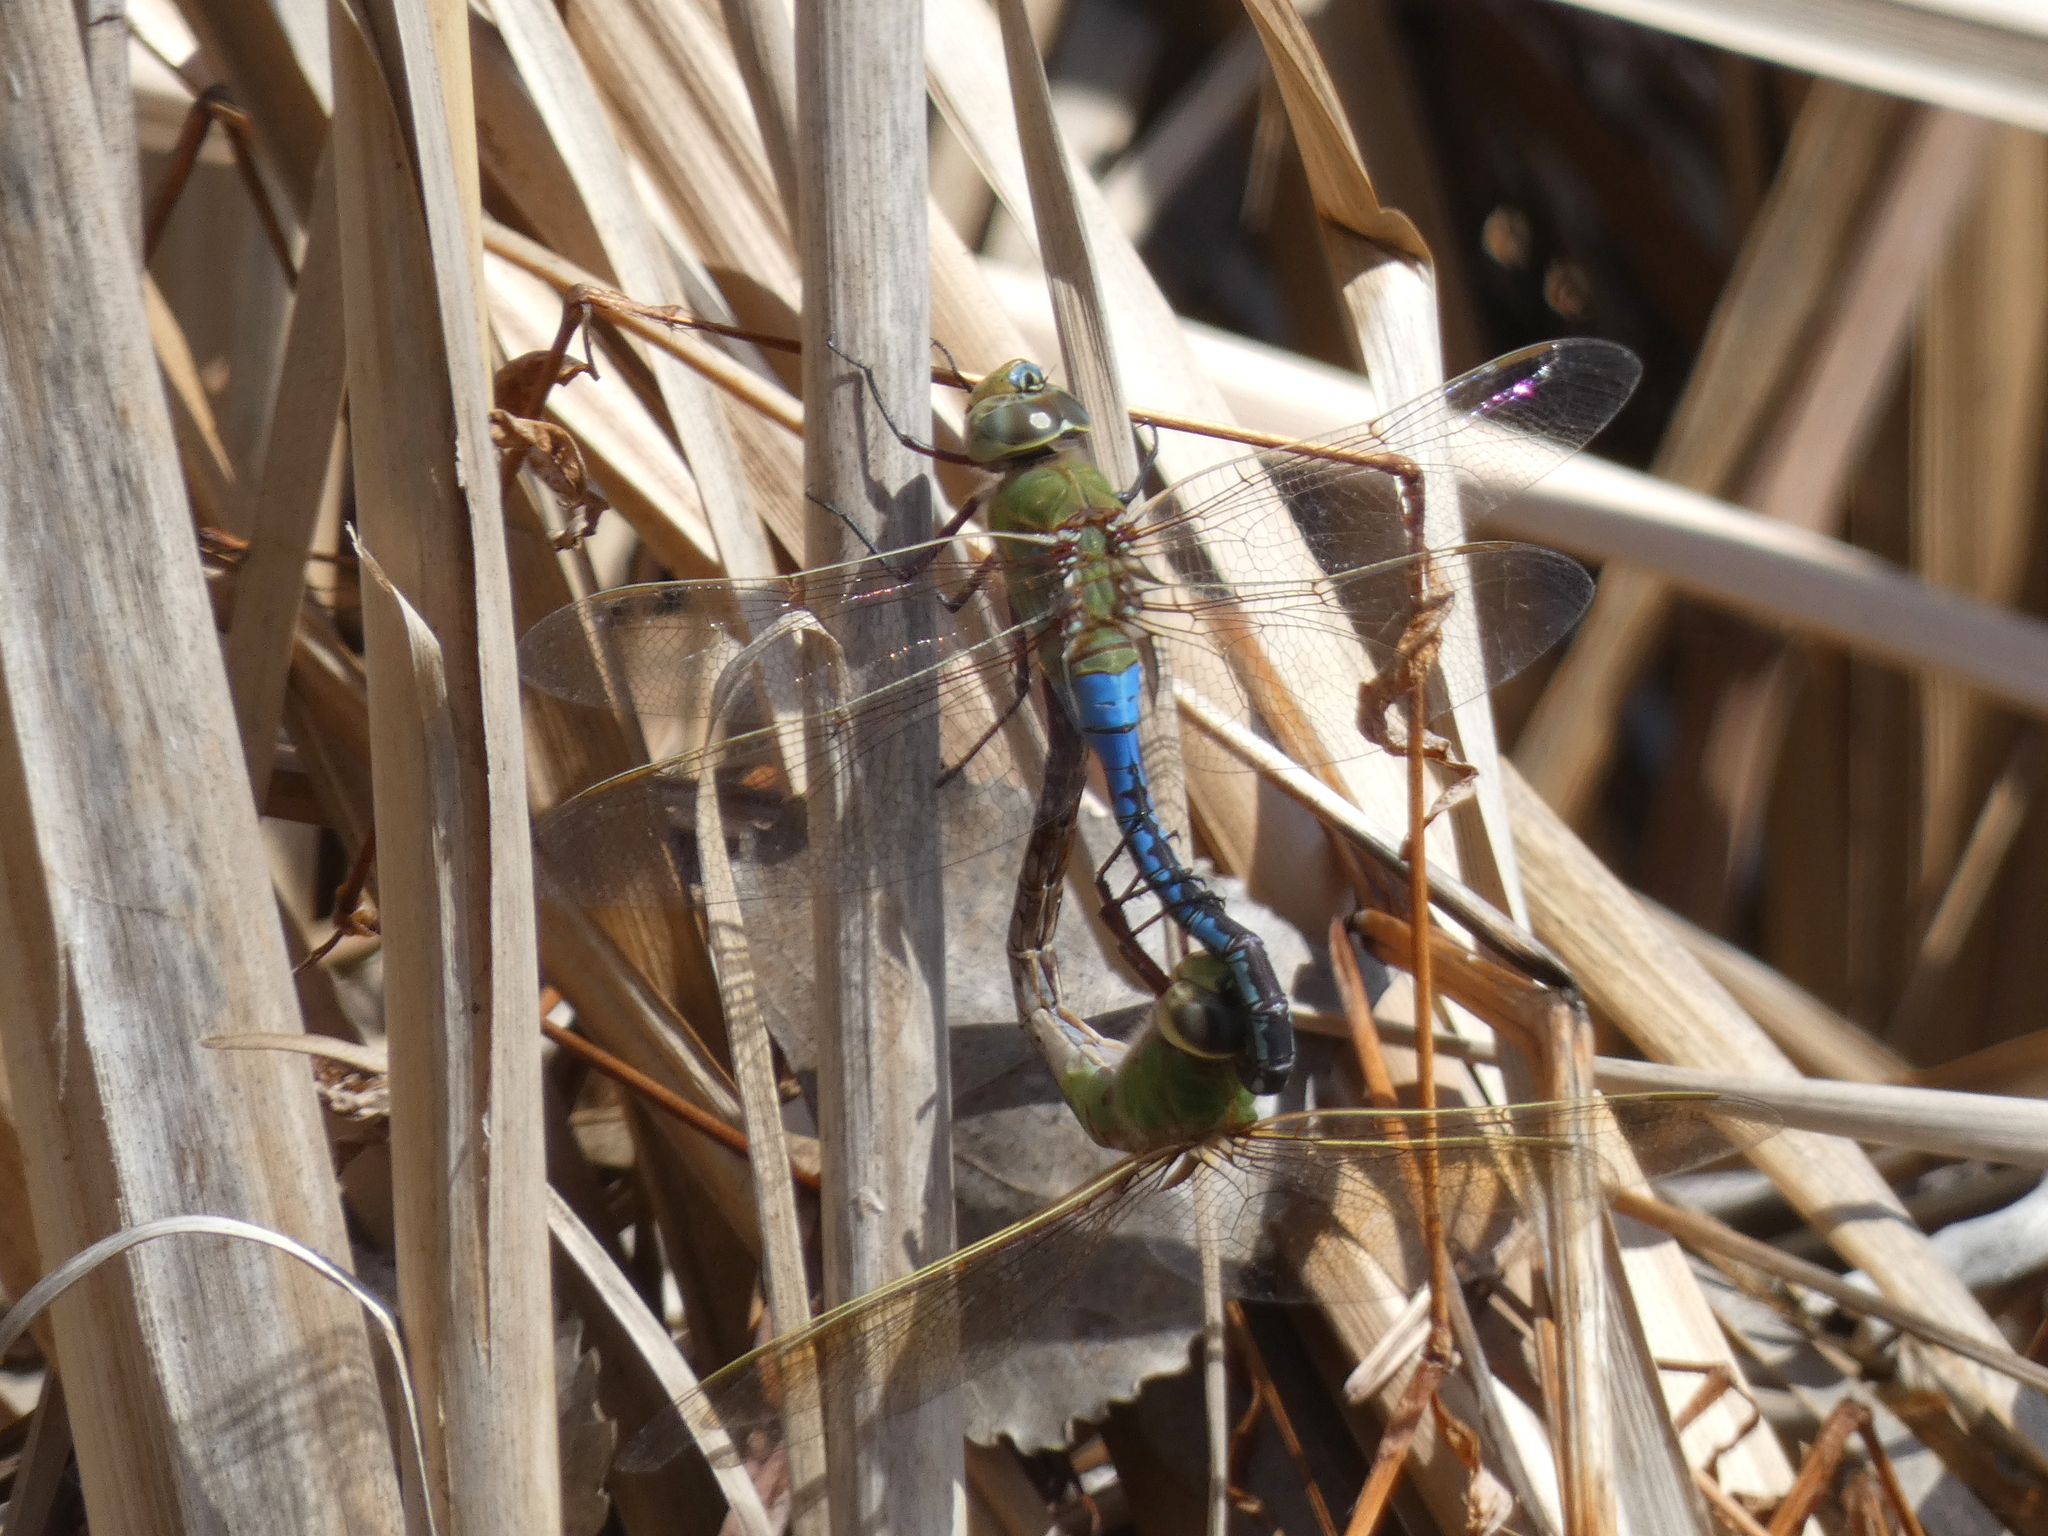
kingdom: Animalia
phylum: Arthropoda
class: Insecta
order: Odonata
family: Aeshnidae
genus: Anax
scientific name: Anax junius
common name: Common green darner
